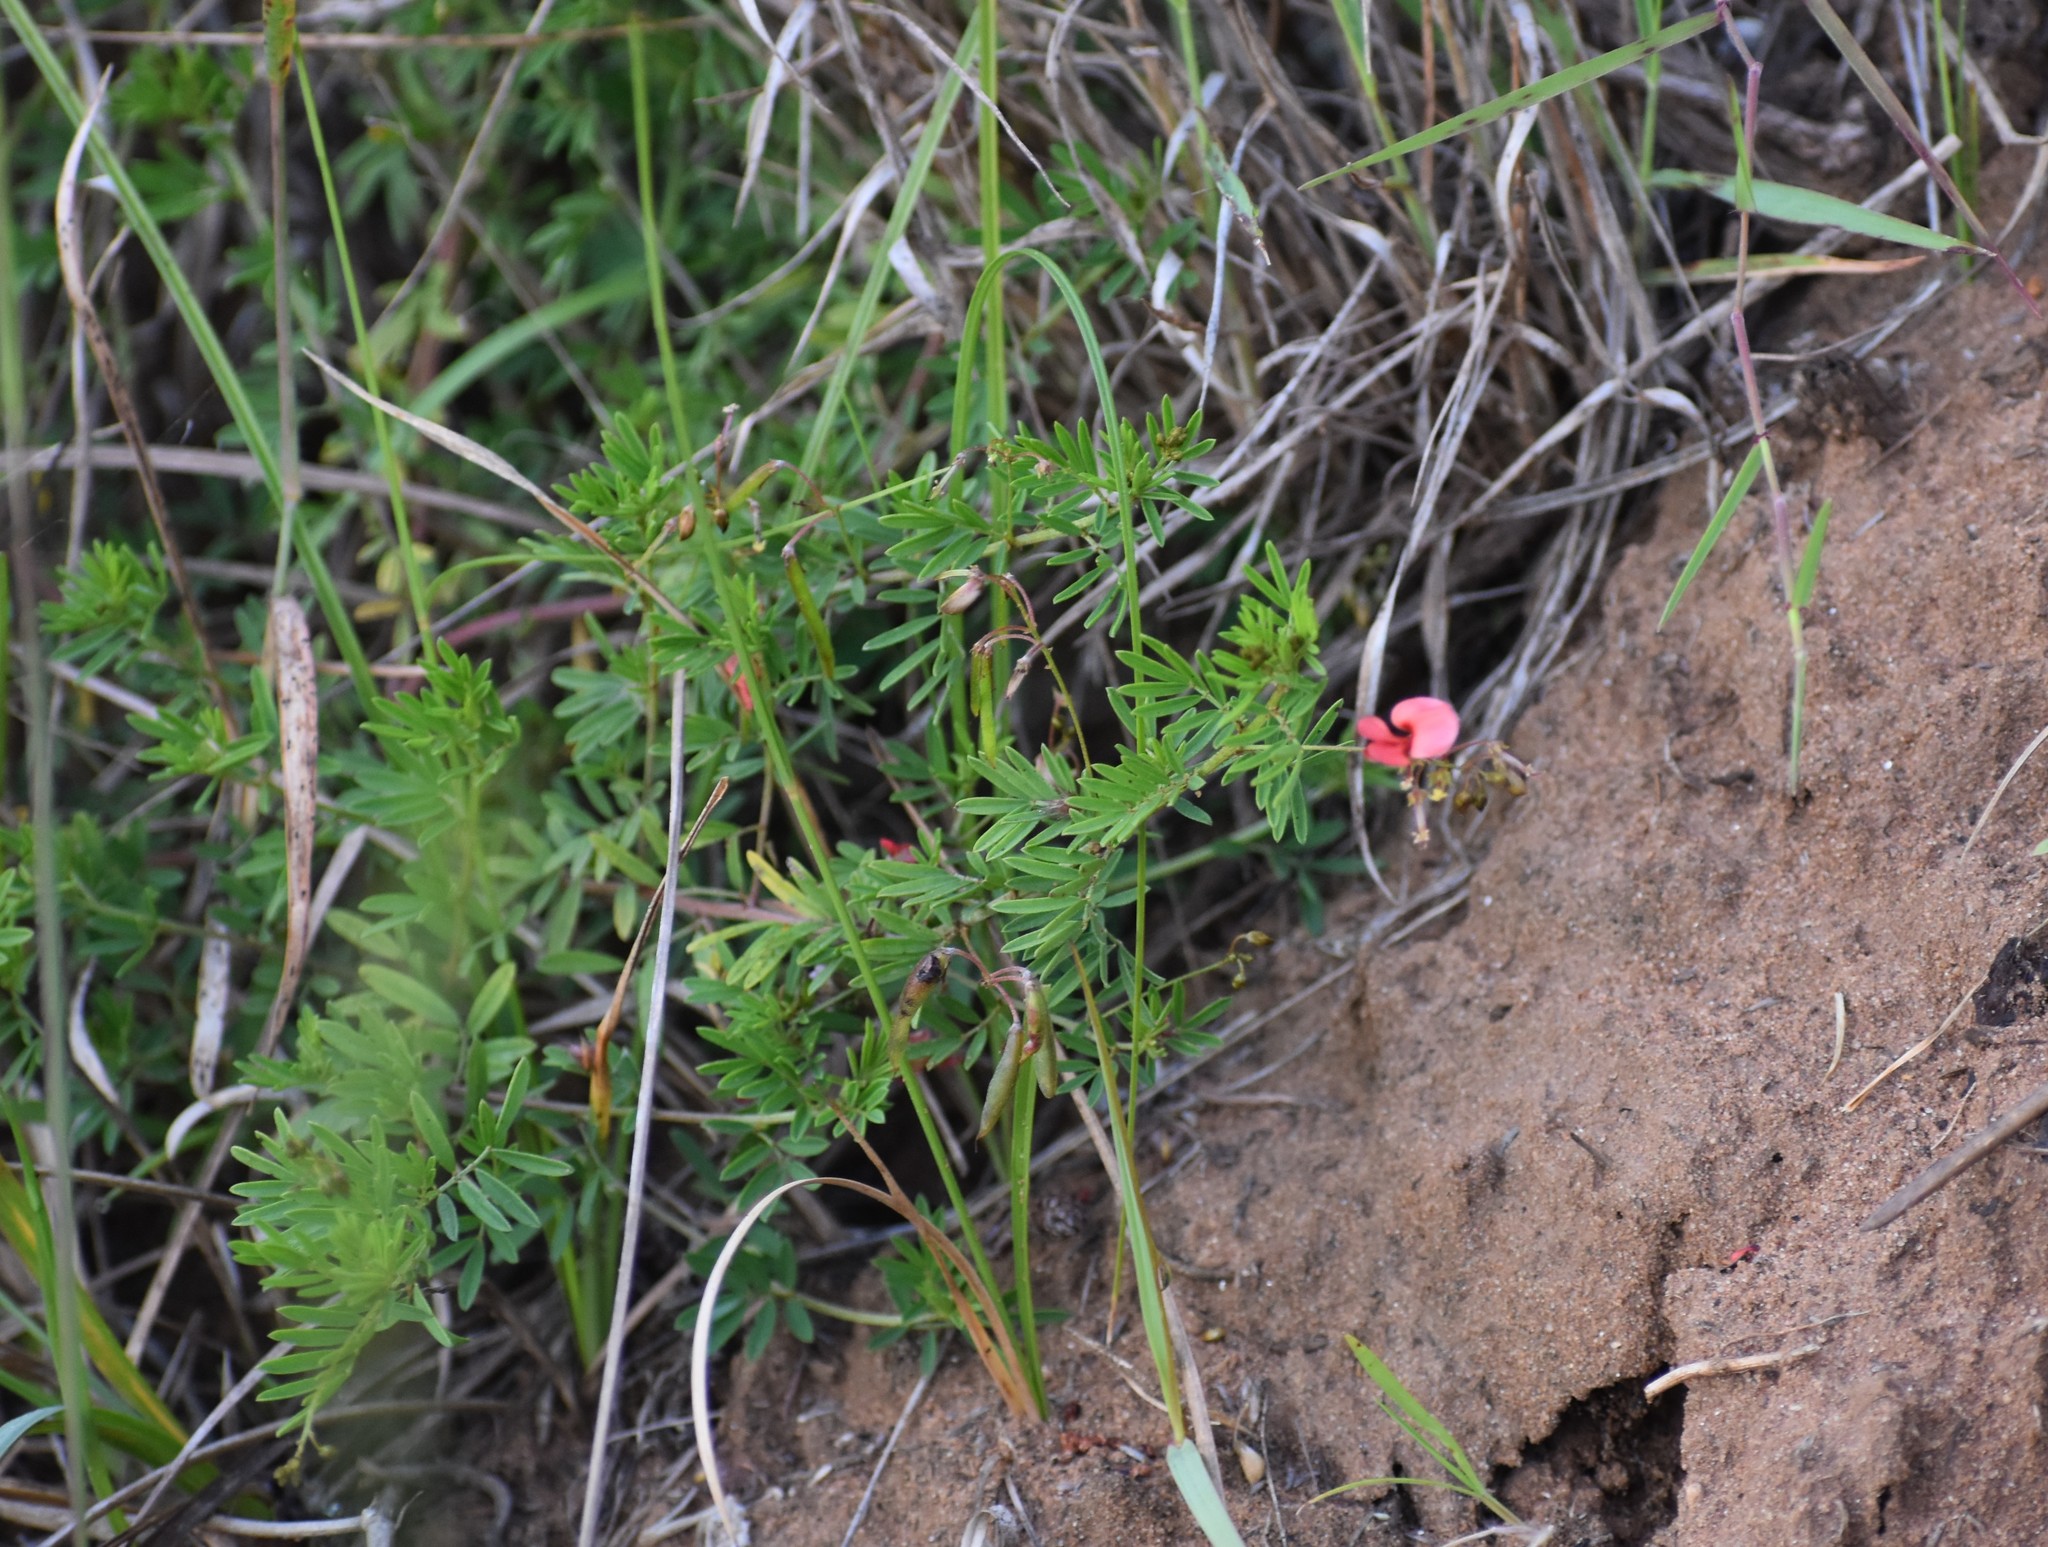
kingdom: Plantae
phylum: Tracheophyta
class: Magnoliopsida
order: Fabales
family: Fabaceae
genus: Indigofera
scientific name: Indigofera verrucosa
